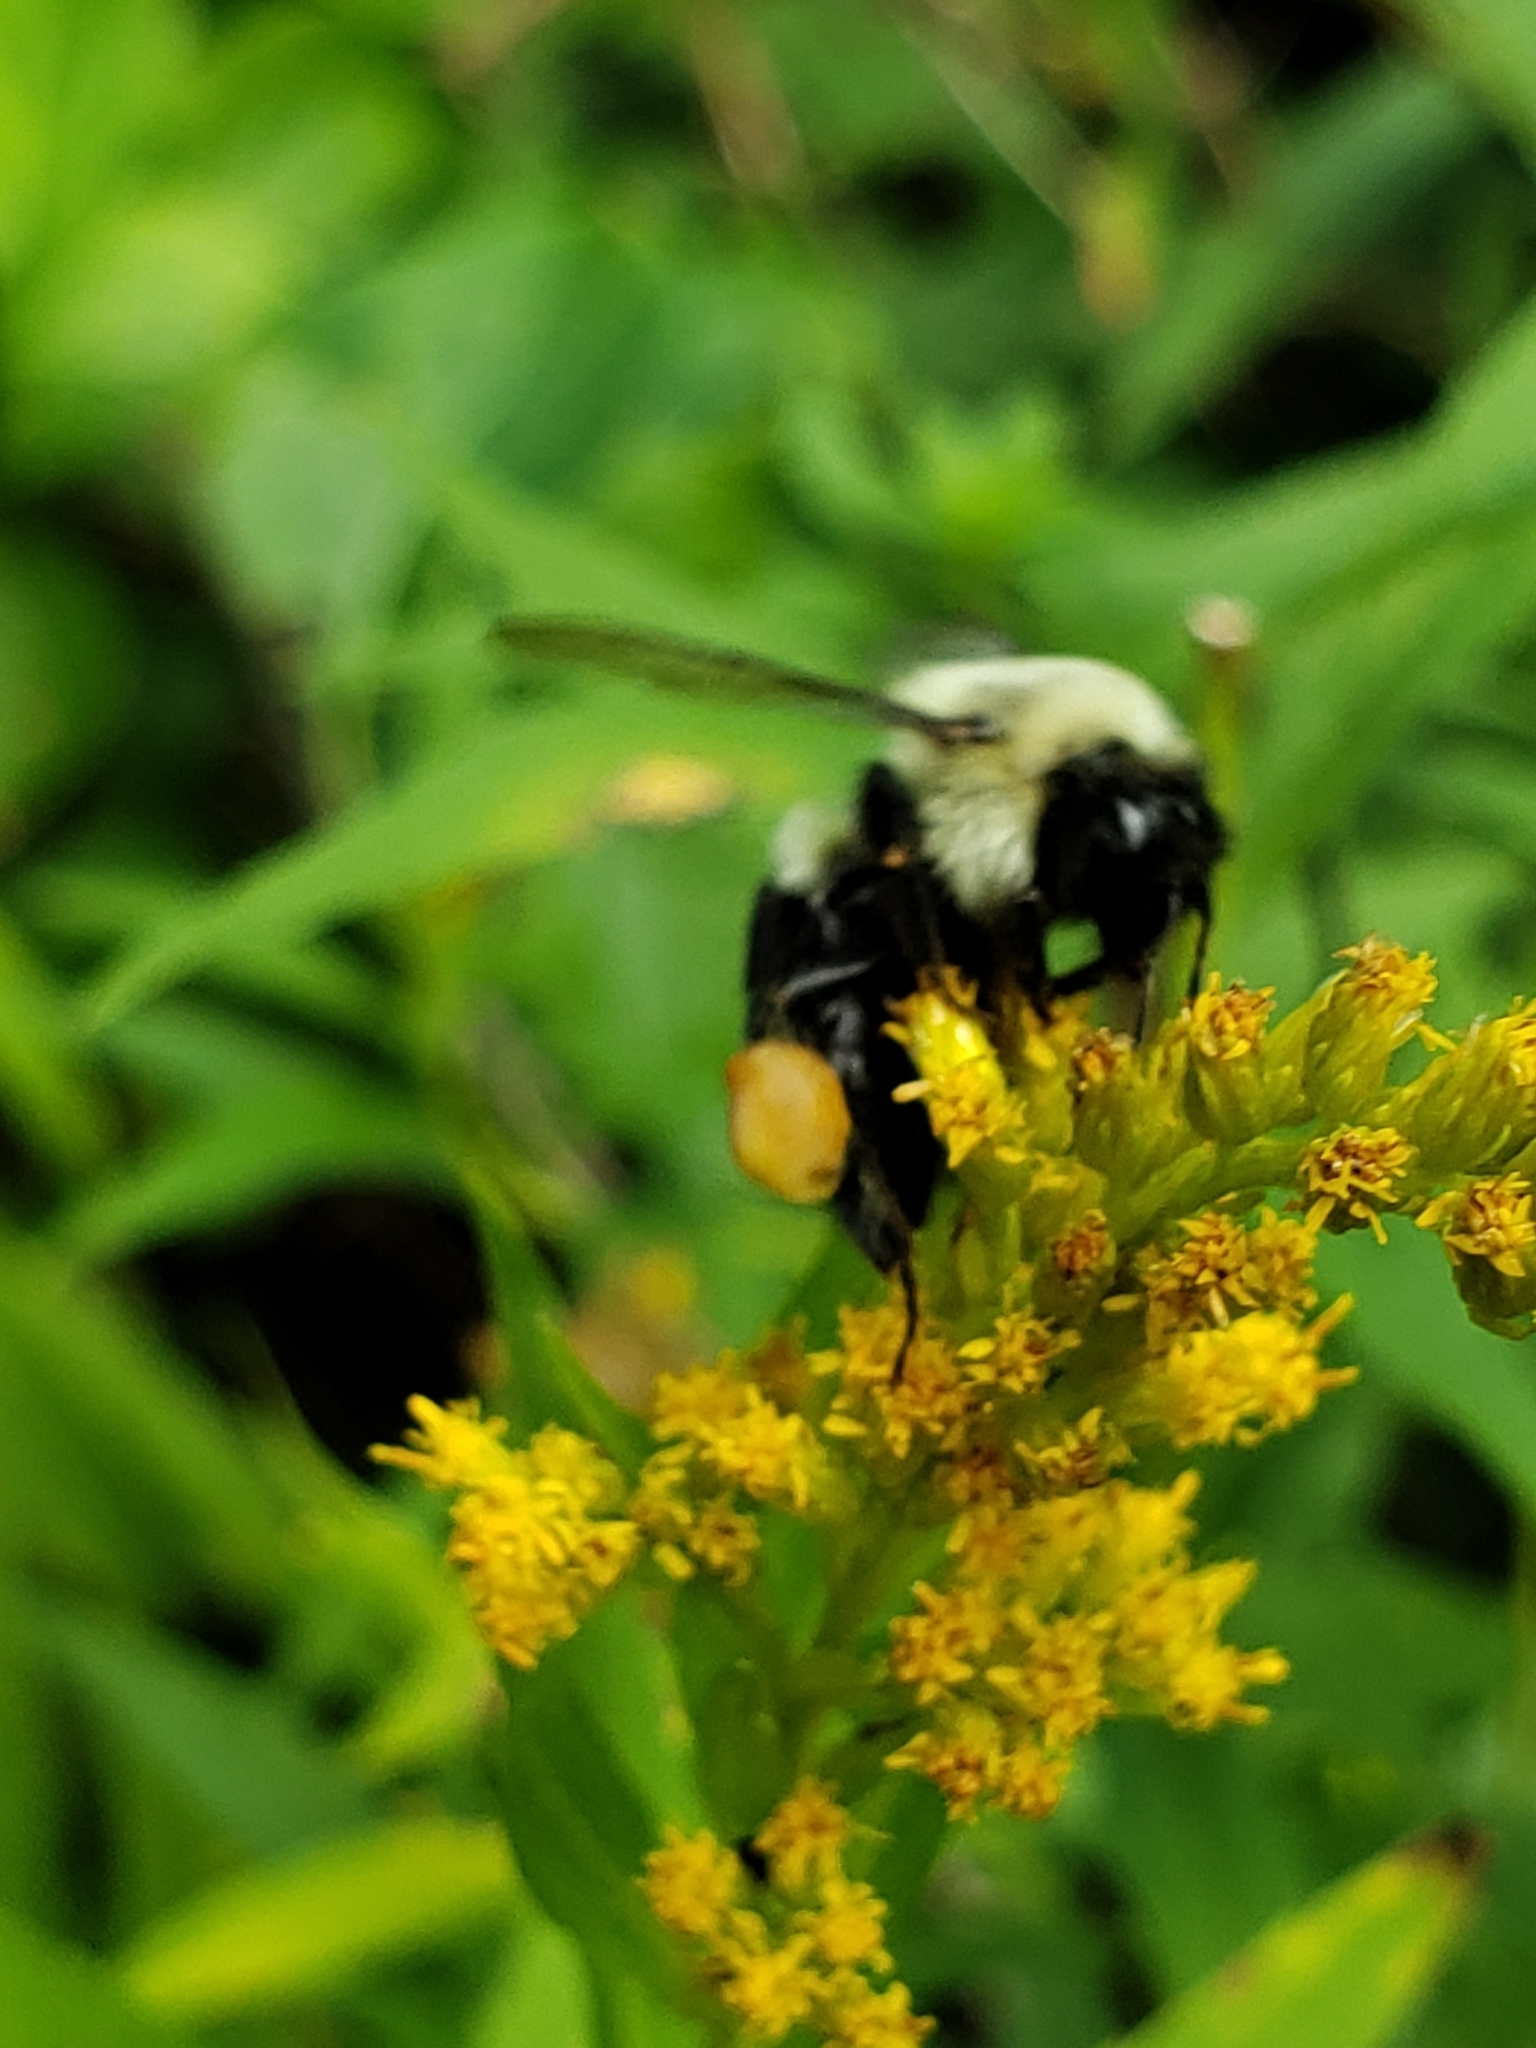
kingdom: Animalia
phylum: Arthropoda
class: Insecta
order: Hymenoptera
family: Apidae
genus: Bombus
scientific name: Bombus impatiens
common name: Common eastern bumble bee
